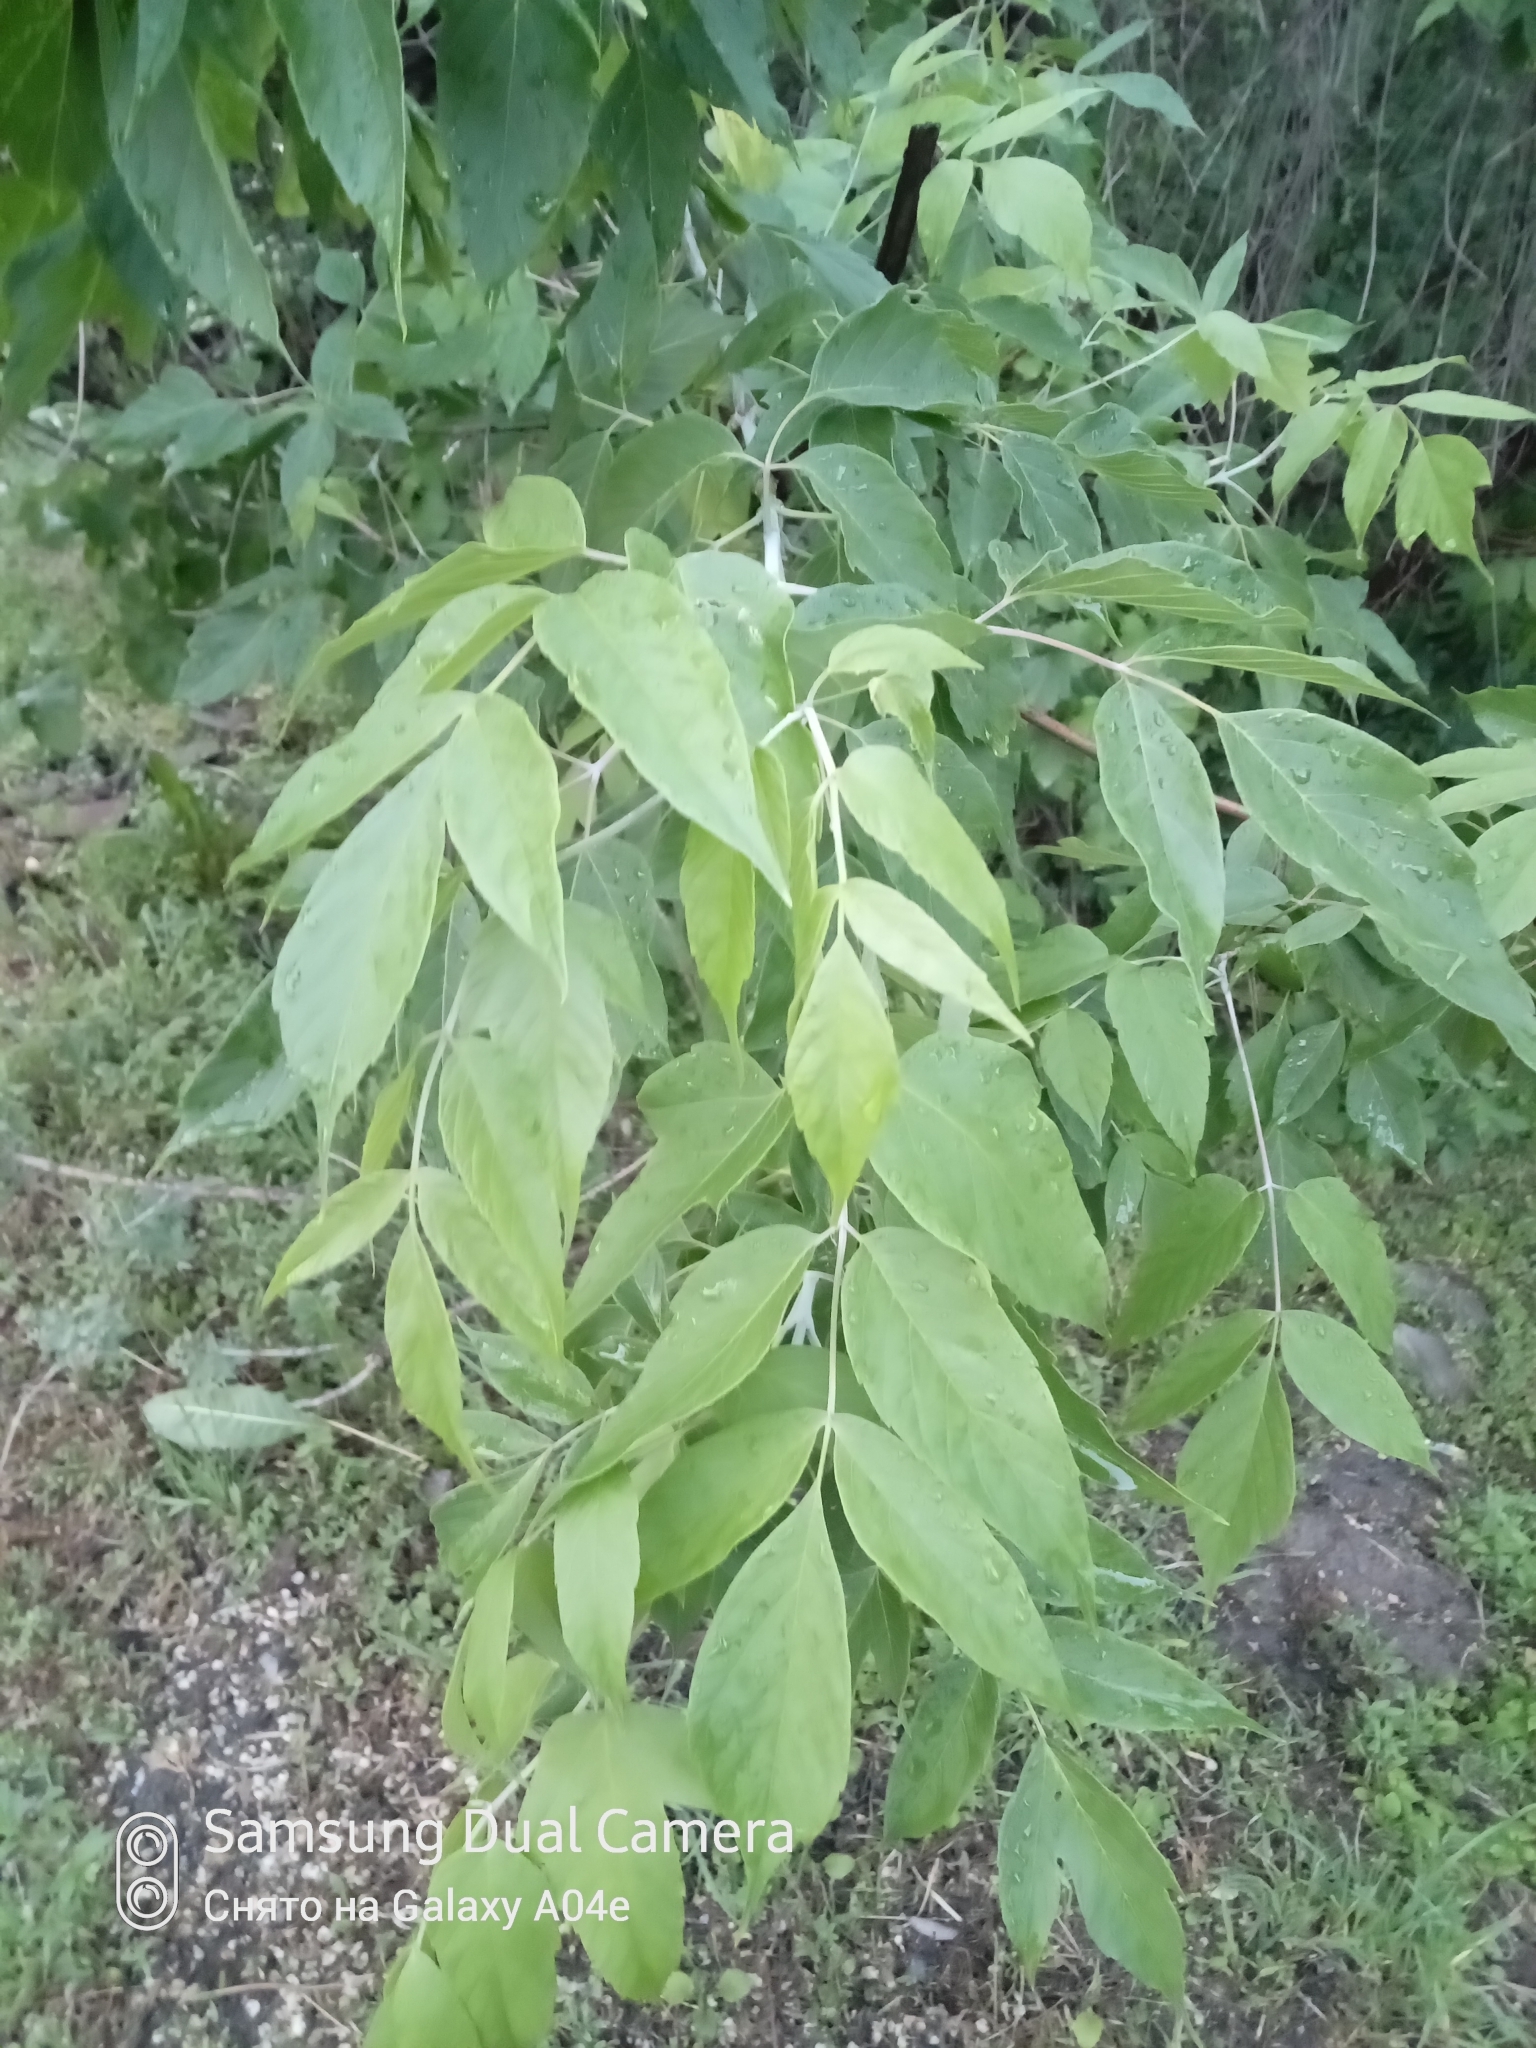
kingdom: Plantae
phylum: Tracheophyta
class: Magnoliopsida
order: Sapindales
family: Sapindaceae
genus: Acer
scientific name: Acer negundo
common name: Ashleaf maple
